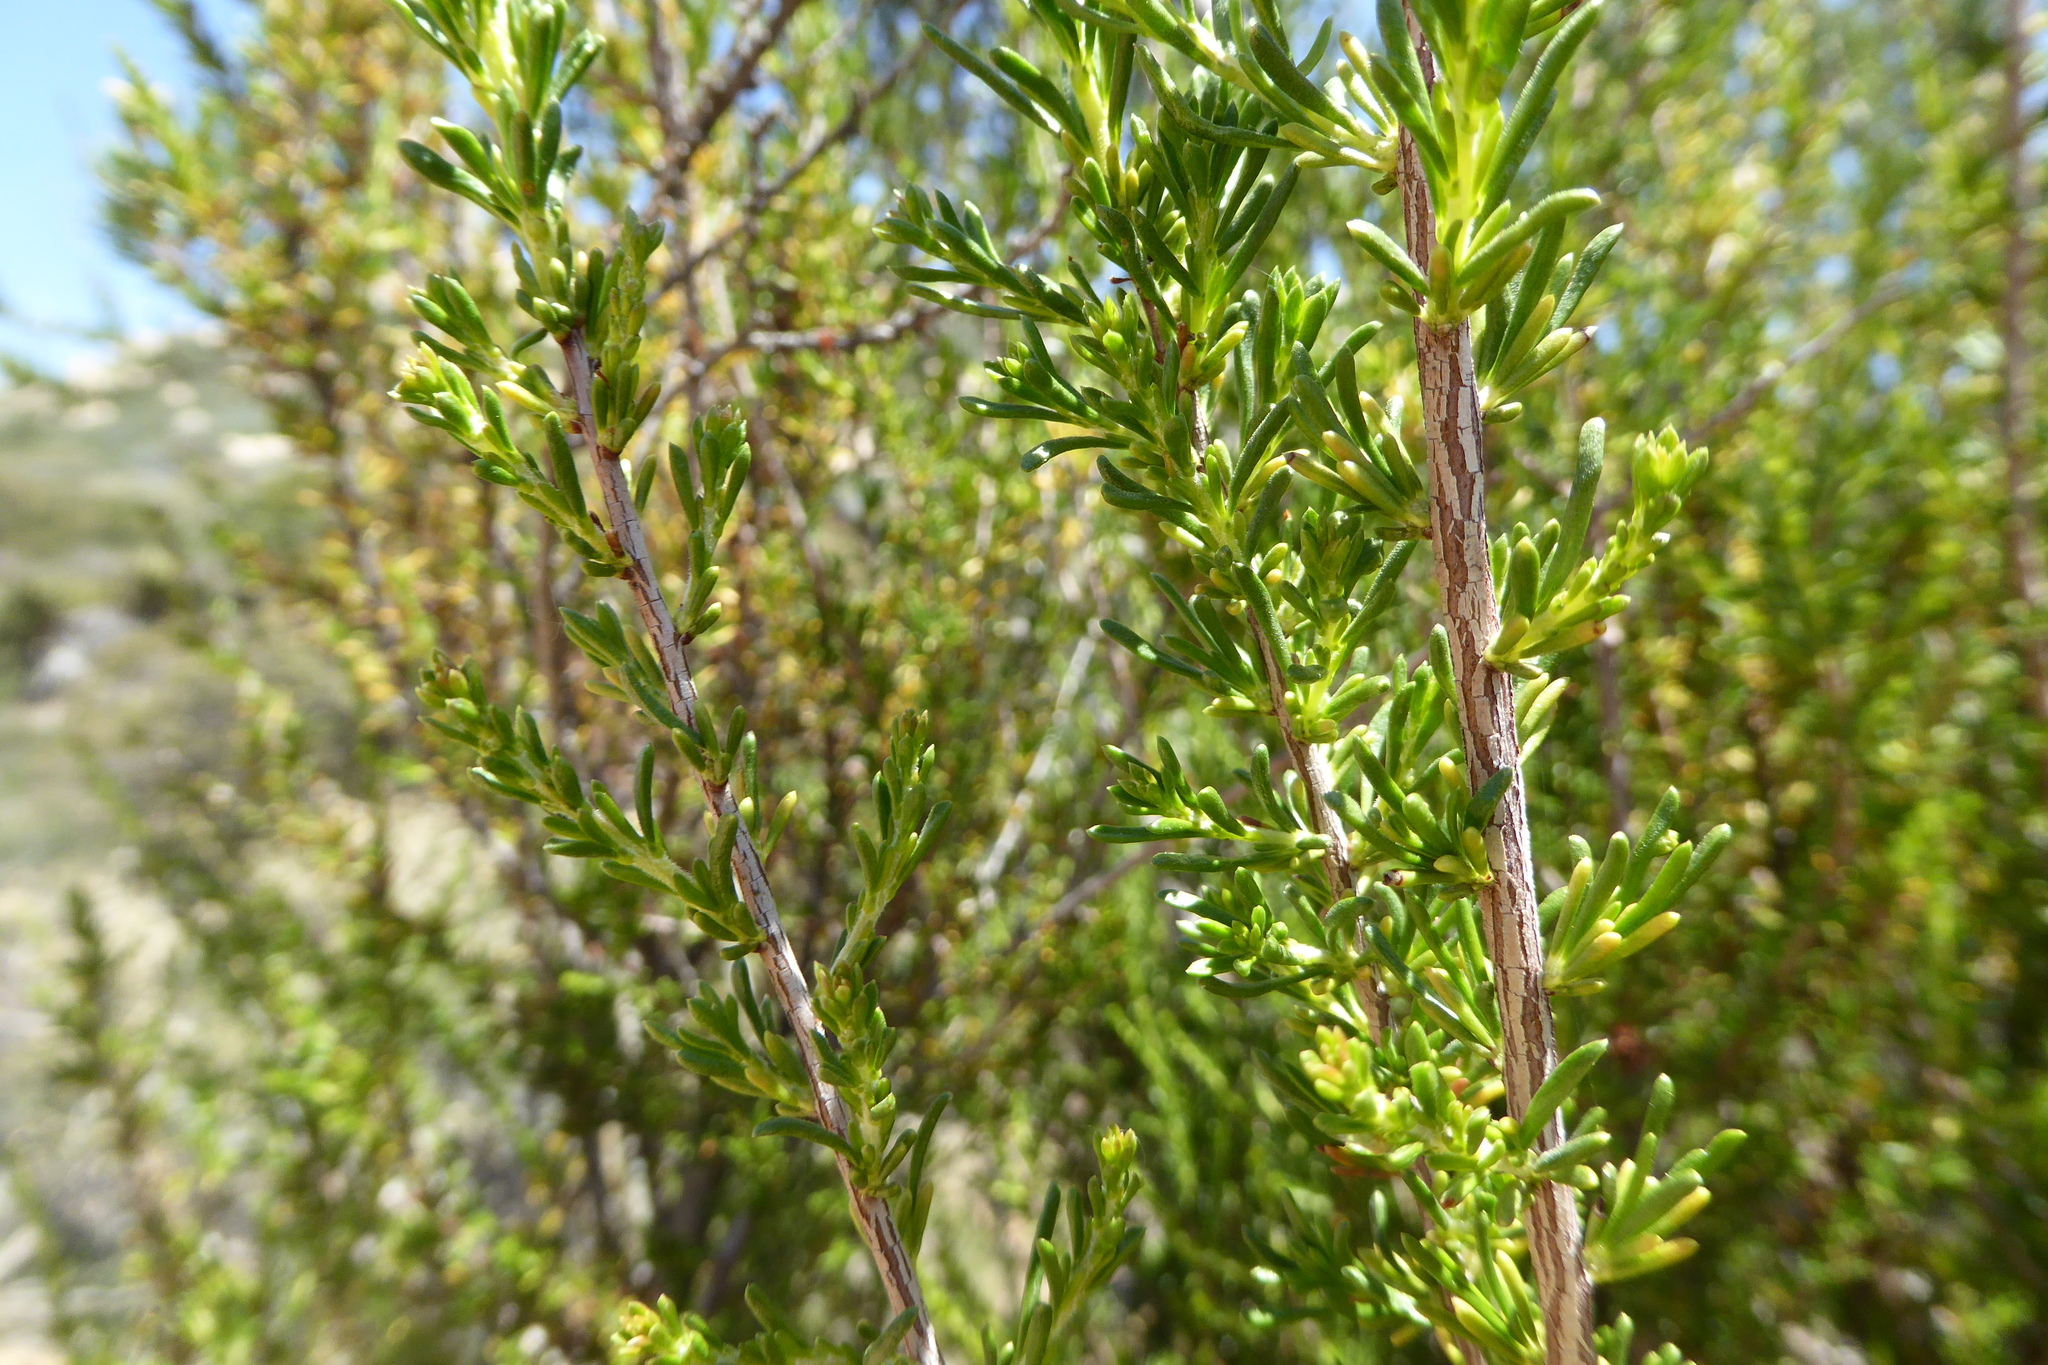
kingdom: Plantae
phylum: Tracheophyta
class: Magnoliopsida
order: Rosales
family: Rosaceae
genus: Adenostoma
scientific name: Adenostoma fasciculatum
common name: Chamise
